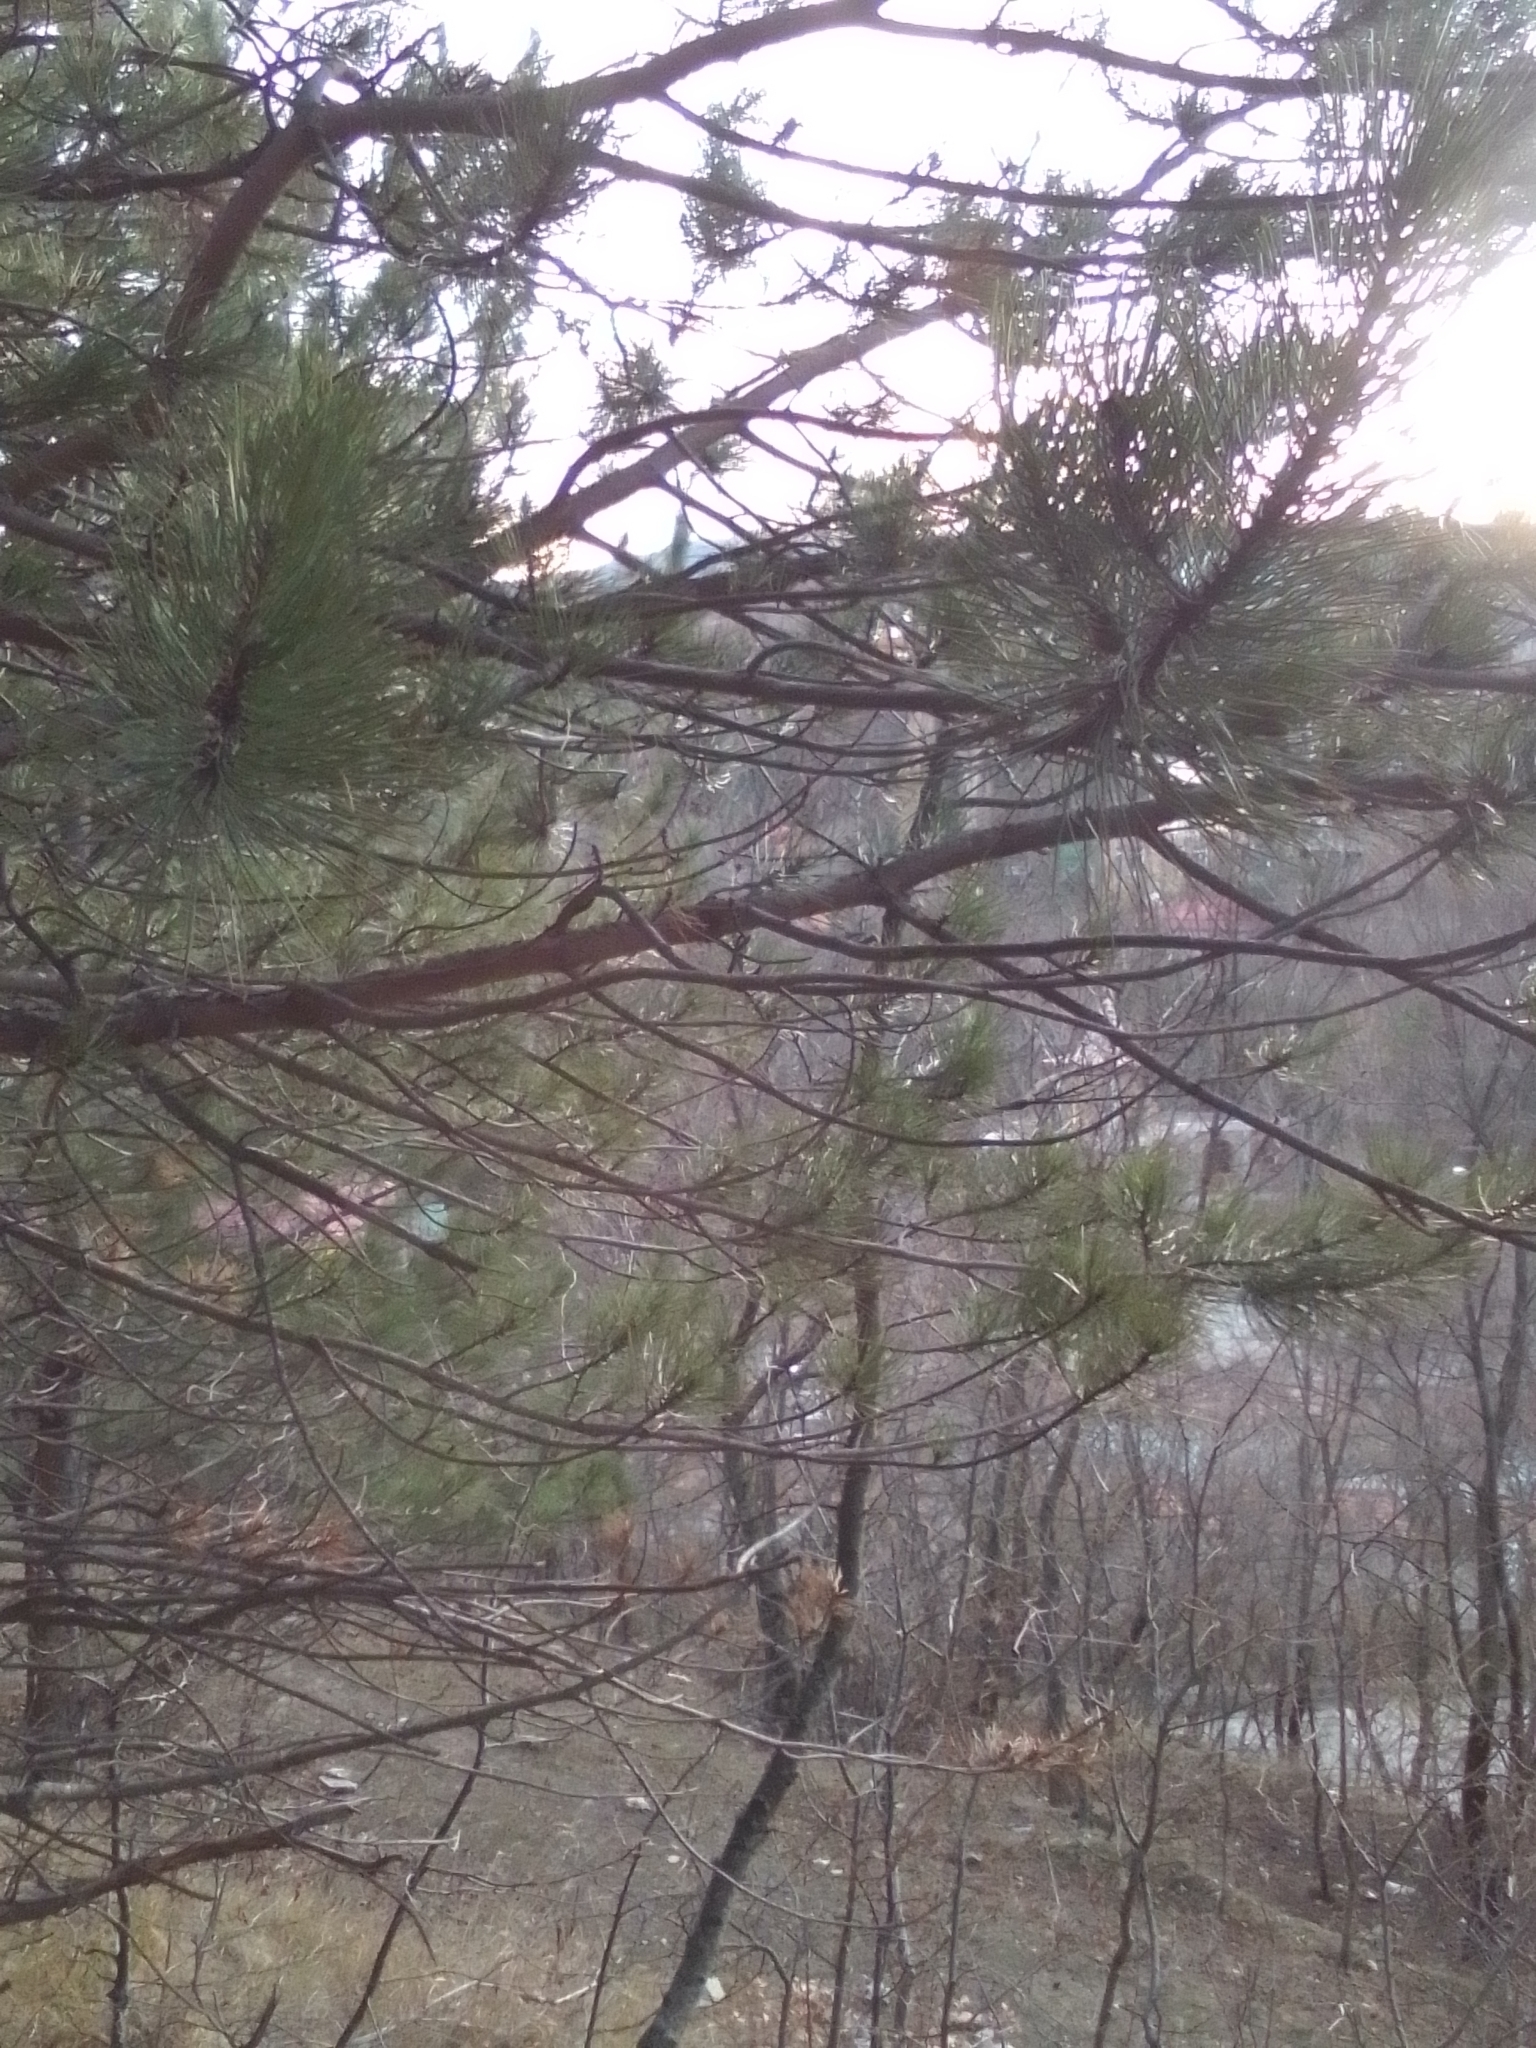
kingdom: Plantae
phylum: Tracheophyta
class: Pinopsida
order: Pinales
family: Pinaceae
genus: Pinus
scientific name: Pinus nigra
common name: Austrian pine
